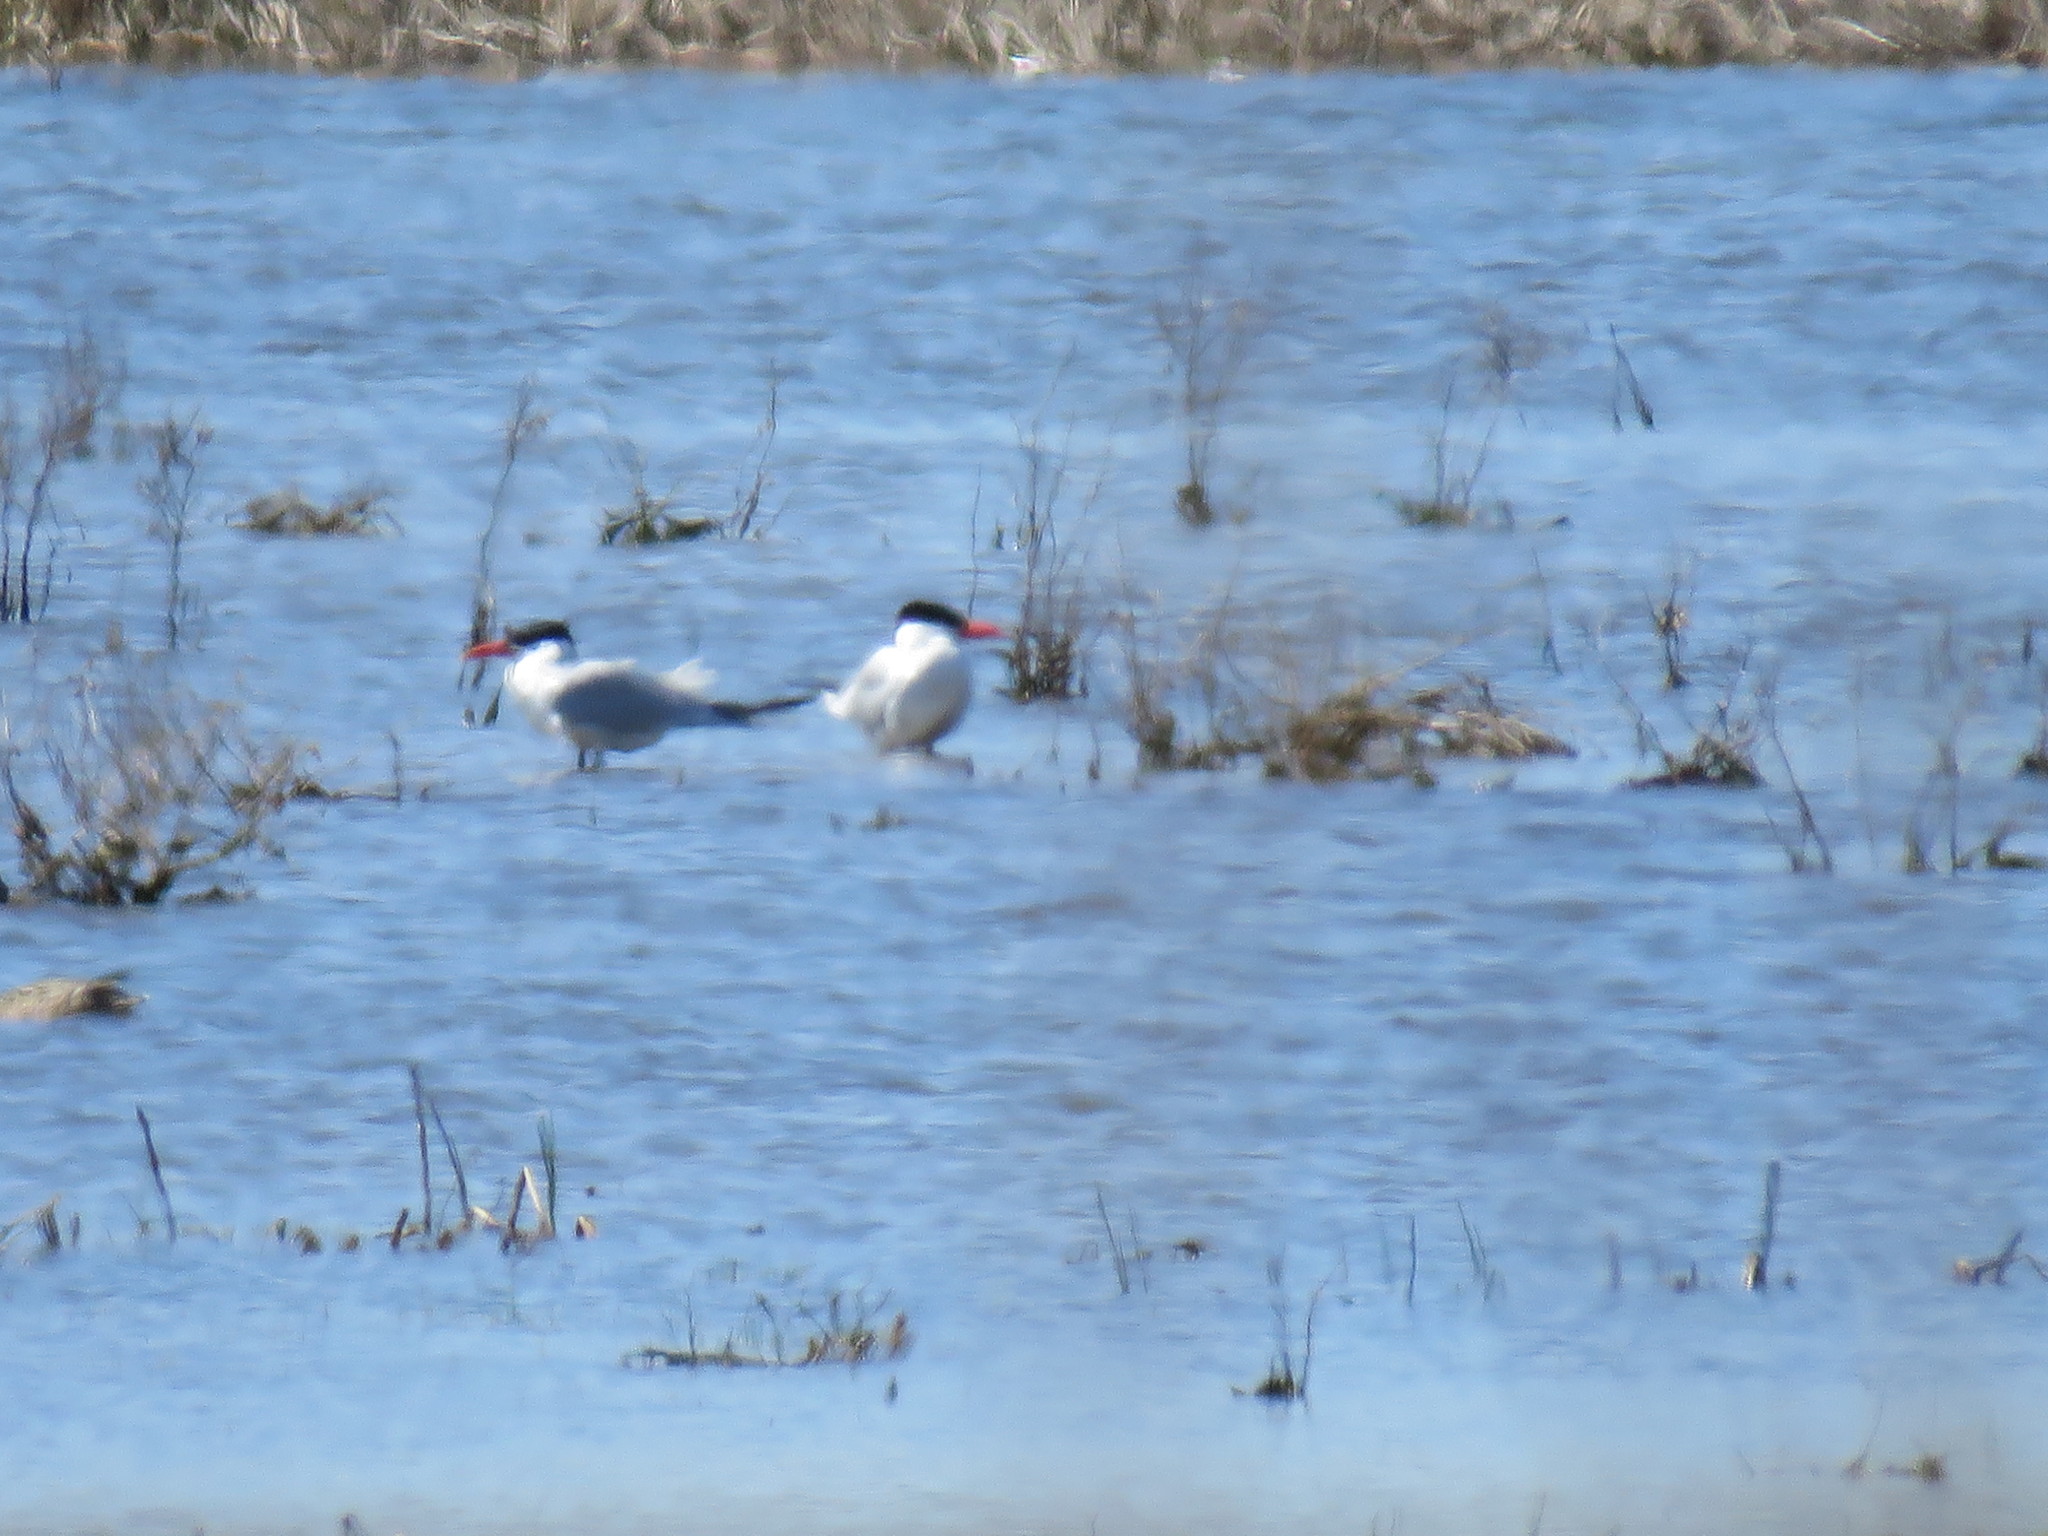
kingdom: Animalia
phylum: Chordata
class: Aves
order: Charadriiformes
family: Laridae
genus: Hydroprogne
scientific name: Hydroprogne caspia
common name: Caspian tern
